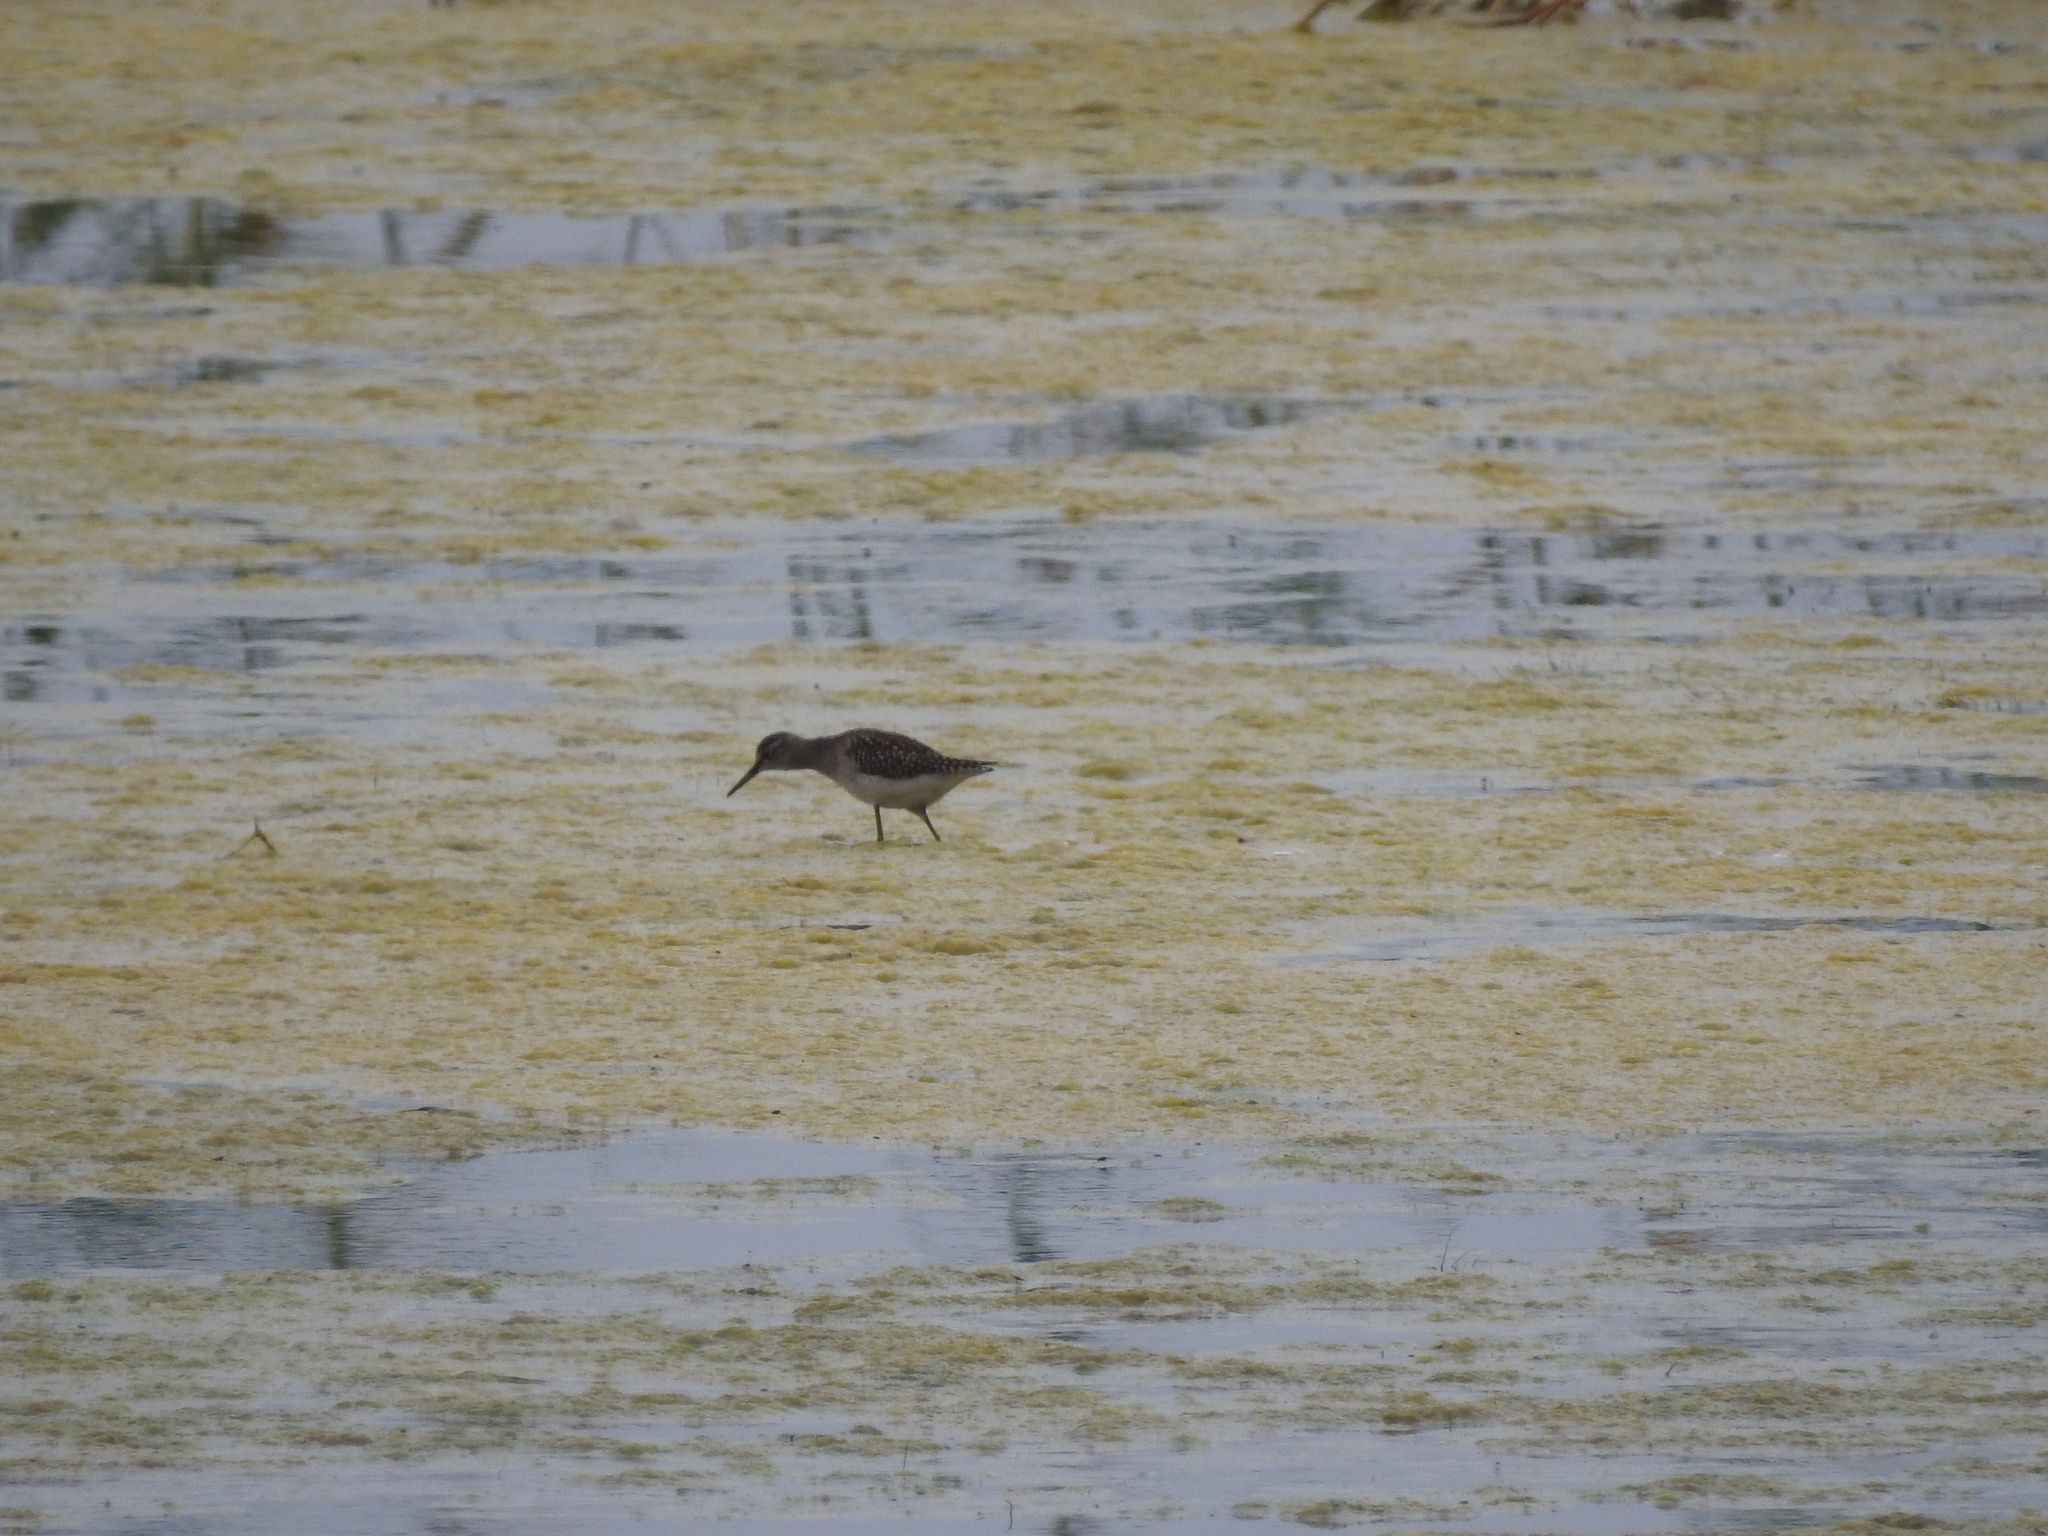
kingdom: Animalia
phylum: Chordata
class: Aves
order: Charadriiformes
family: Scolopacidae
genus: Tringa
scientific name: Tringa glareola
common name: Wood sandpiper
